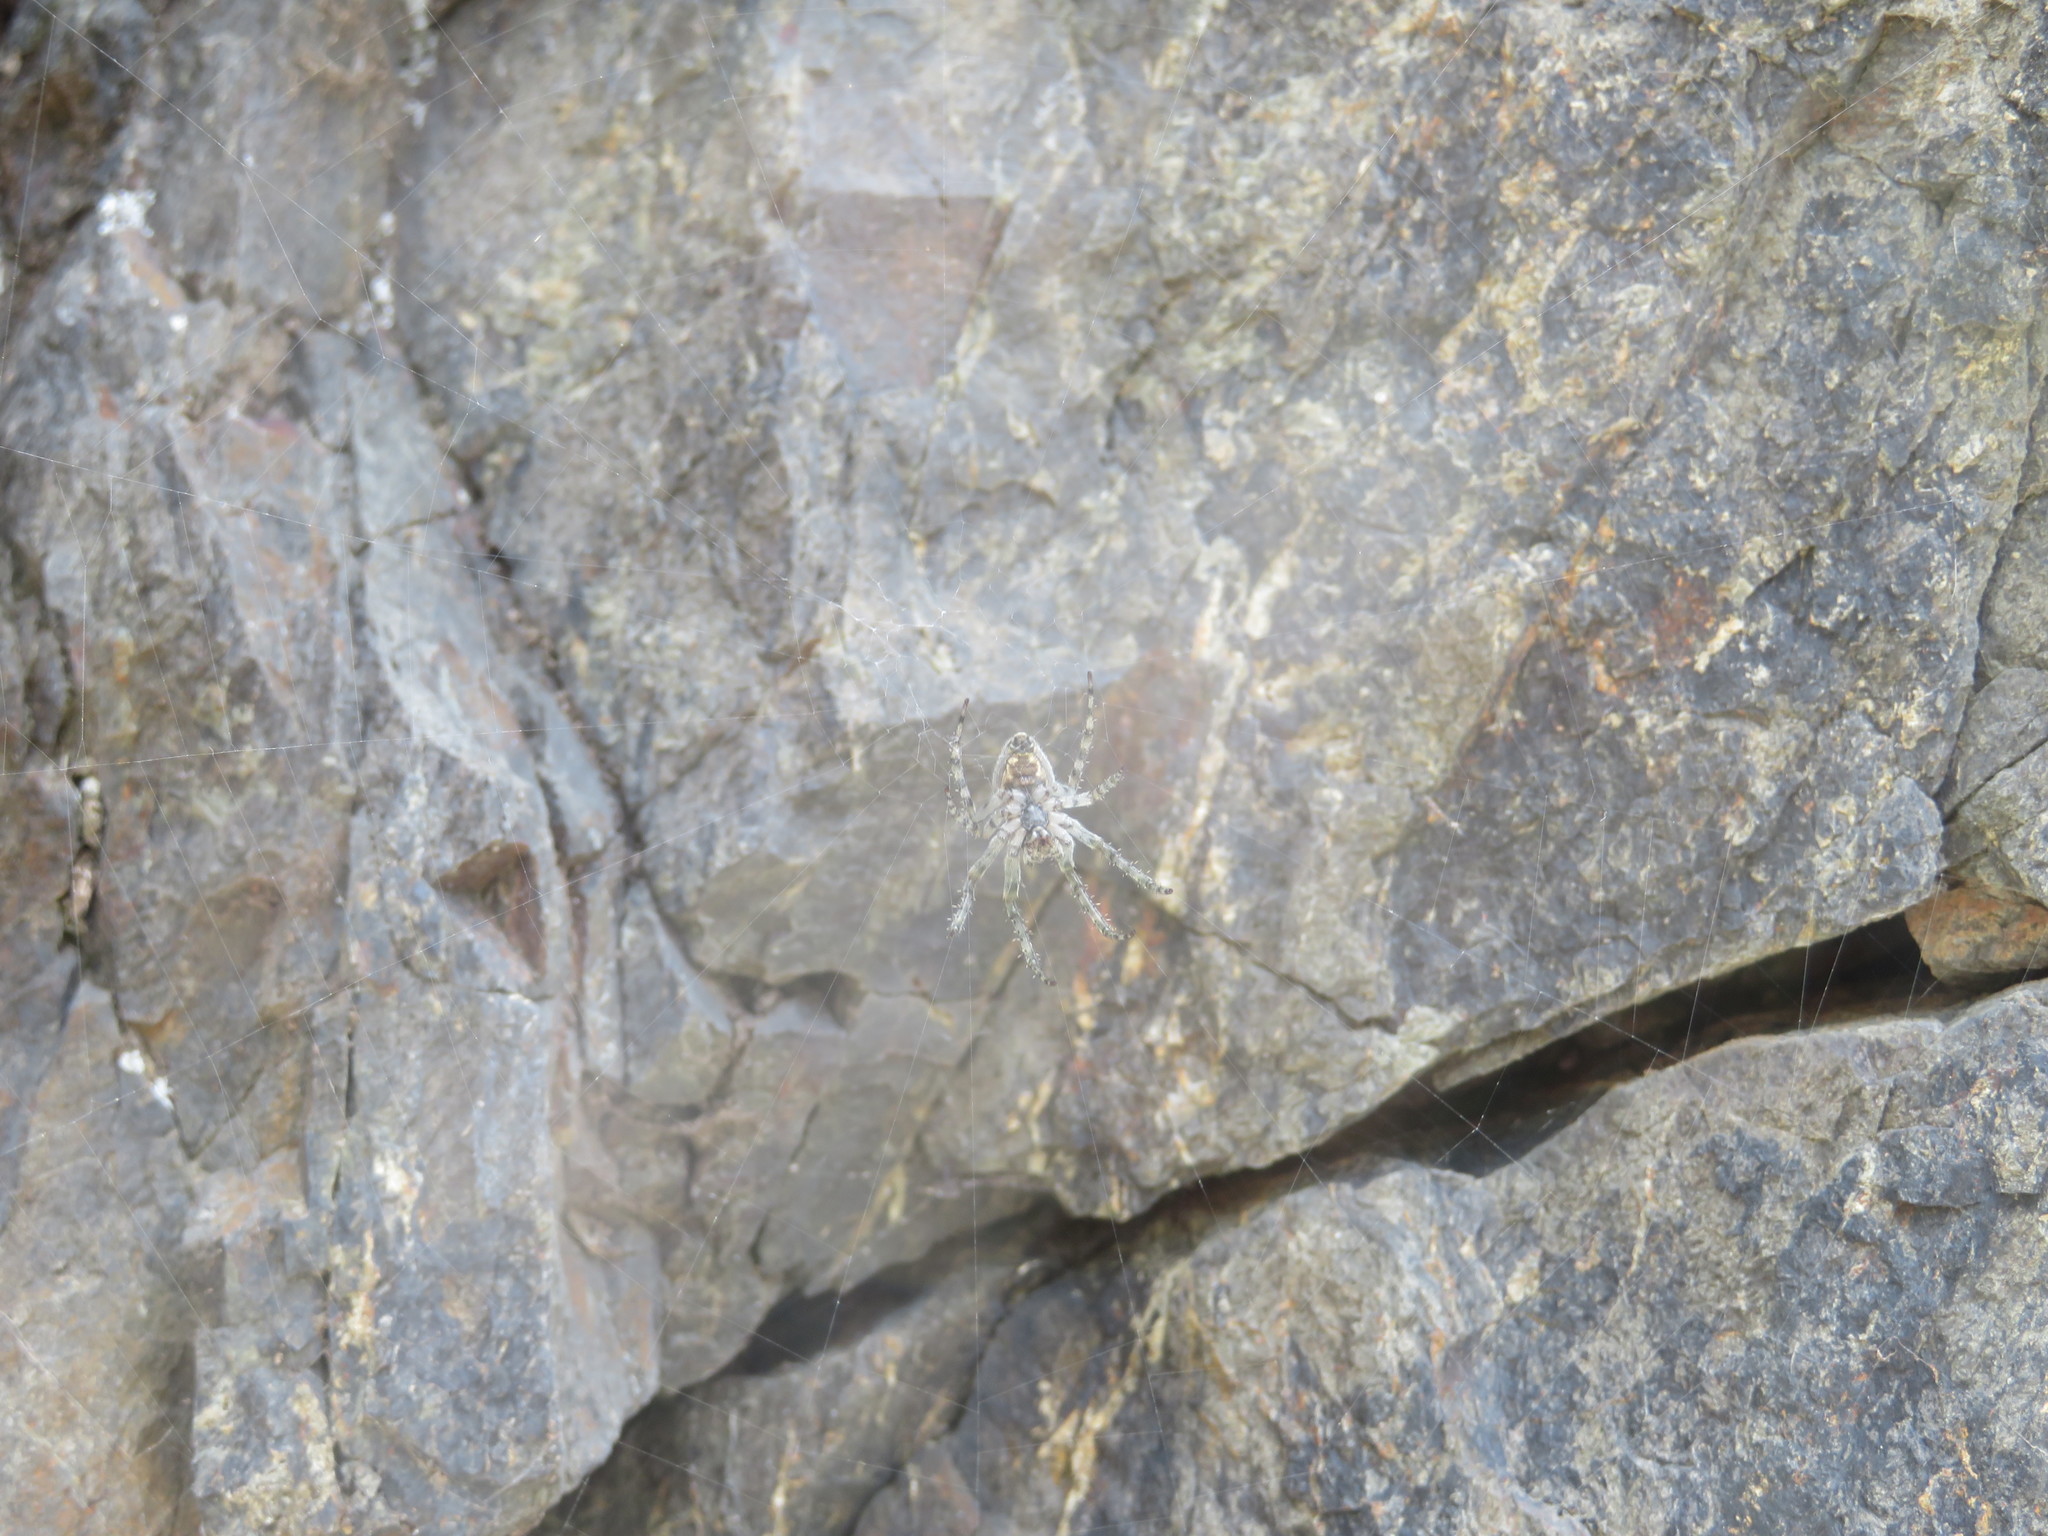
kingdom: Animalia
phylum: Arthropoda
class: Arachnida
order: Araneae
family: Araneidae
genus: Eriophora
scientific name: Eriophora pustulosa
